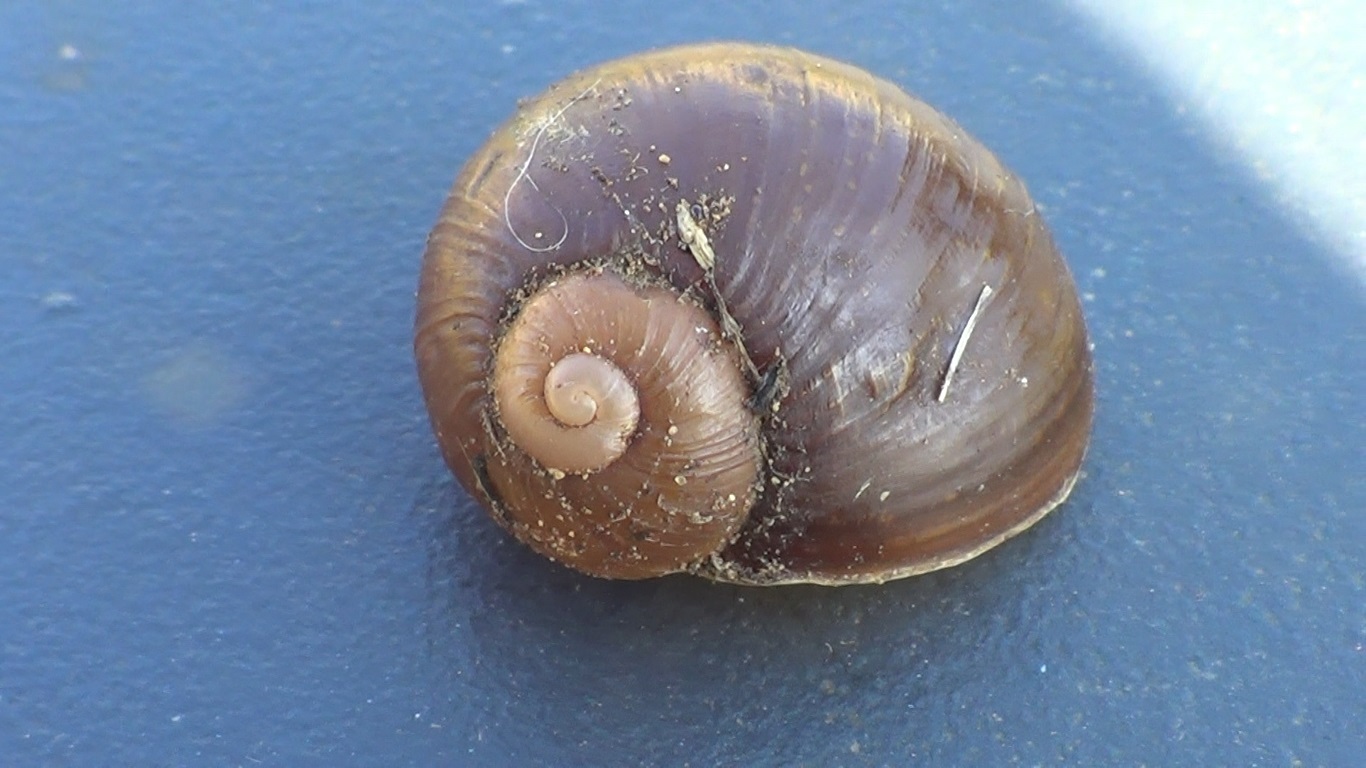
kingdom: Animalia
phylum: Mollusca
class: Gastropoda
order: Stylommatophora
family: Helicidae
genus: Cantareus
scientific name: Cantareus apertus
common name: Green gardensnail
